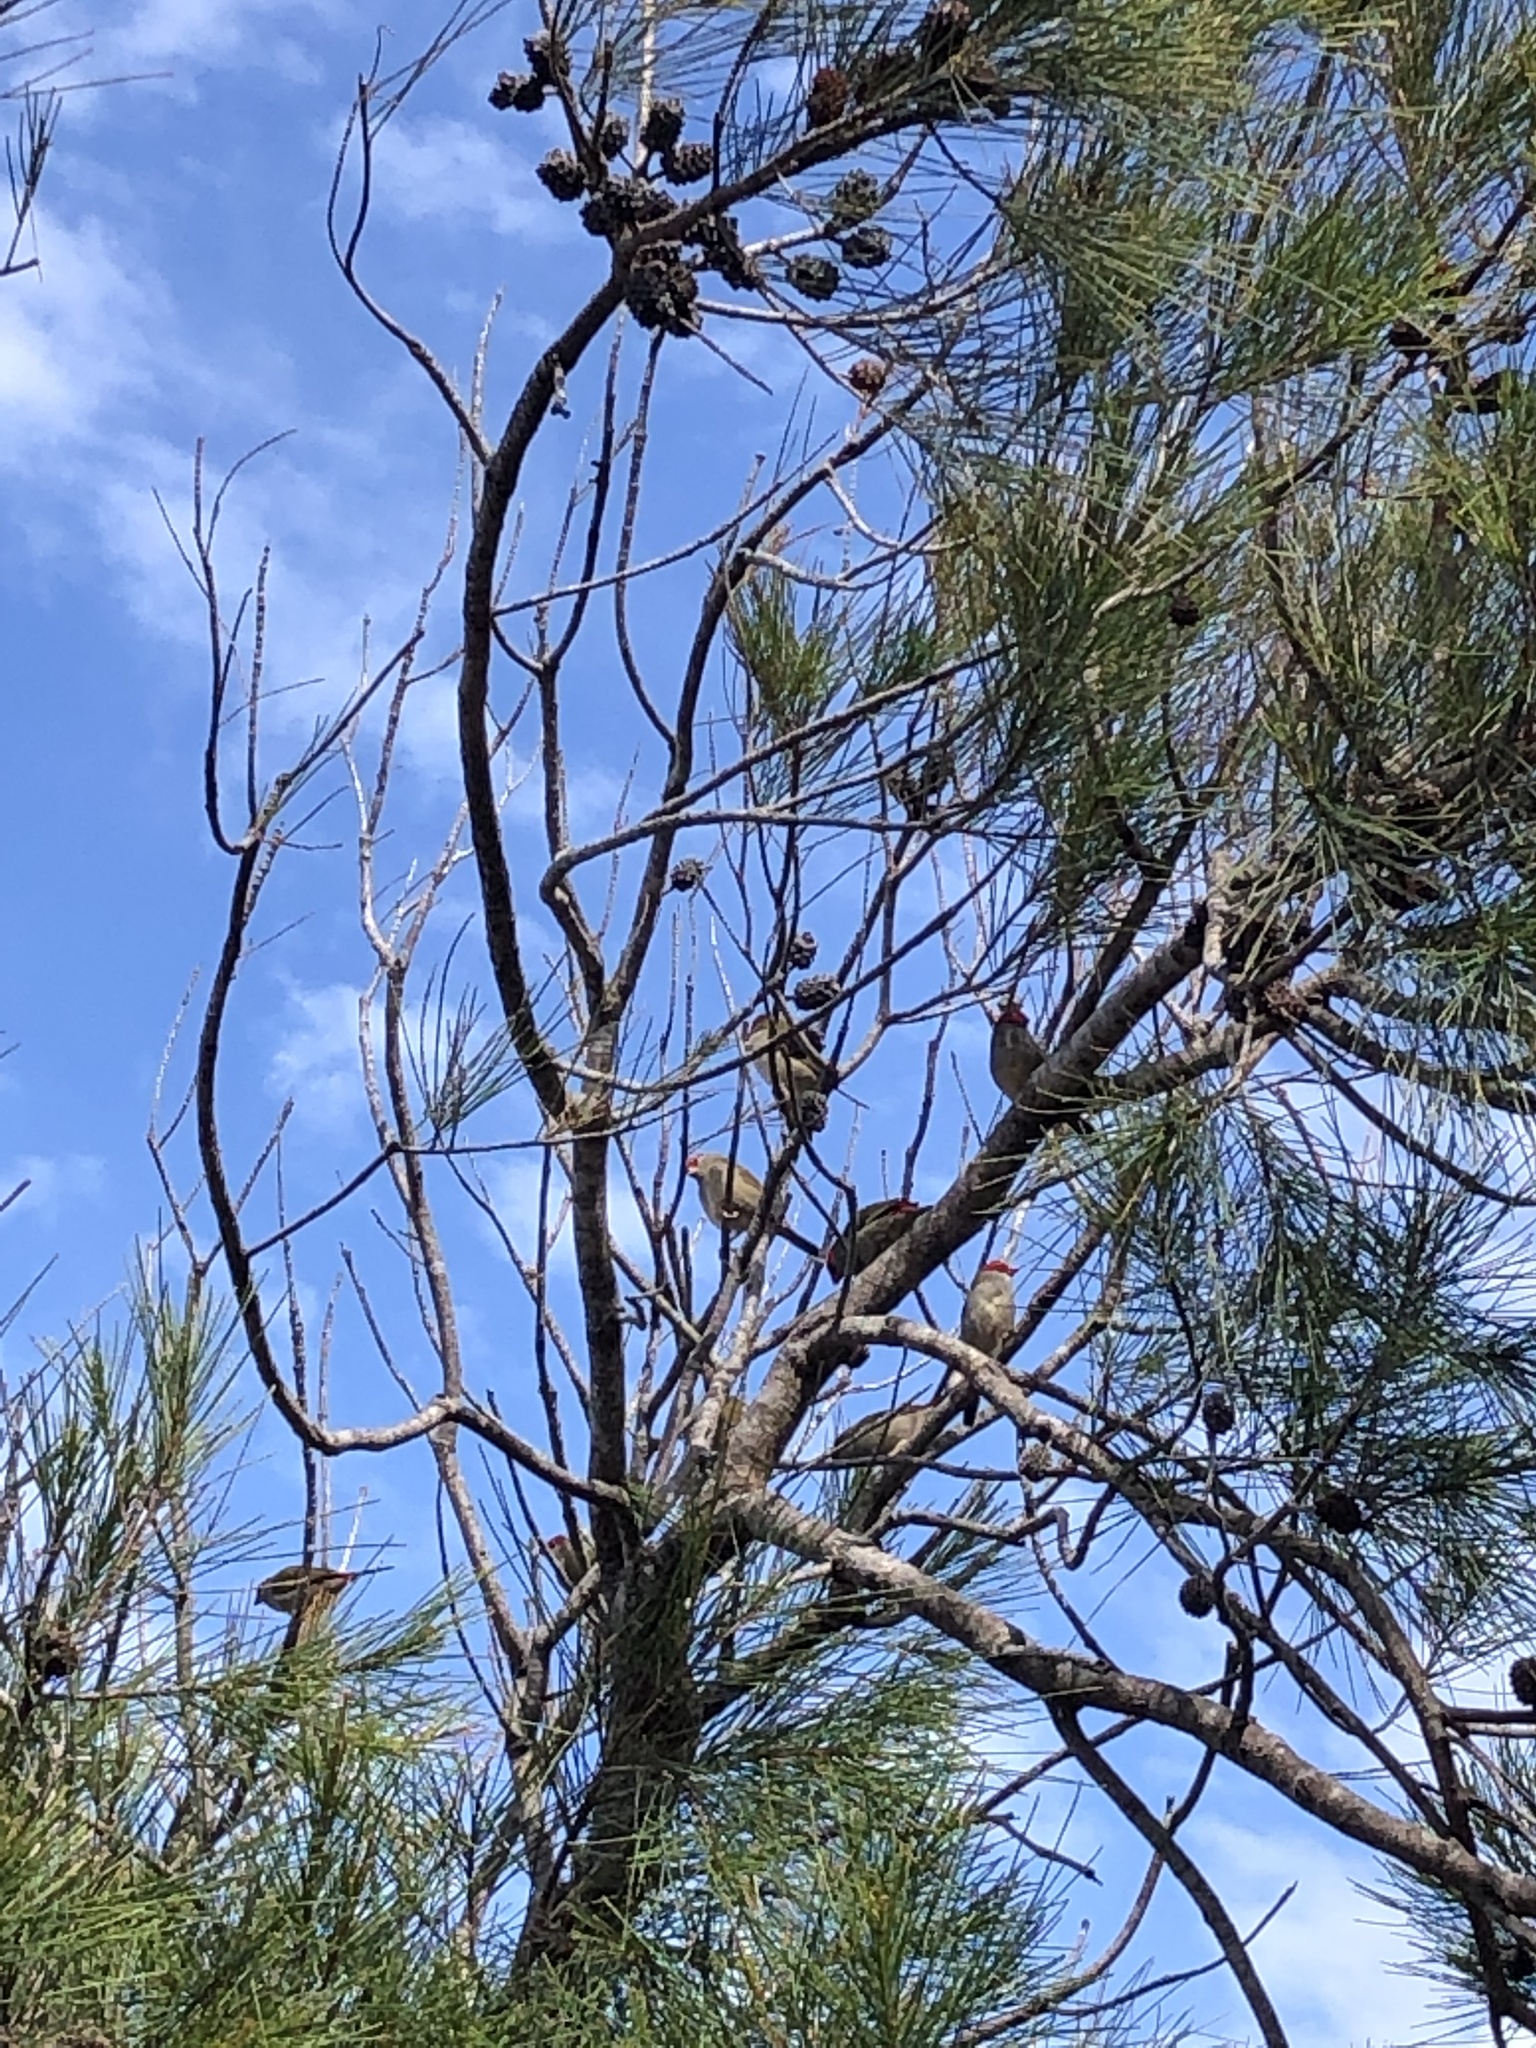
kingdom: Animalia
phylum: Chordata
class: Aves
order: Passeriformes
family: Estrildidae
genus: Neochmia
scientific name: Neochmia temporalis
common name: Red-browed finch
